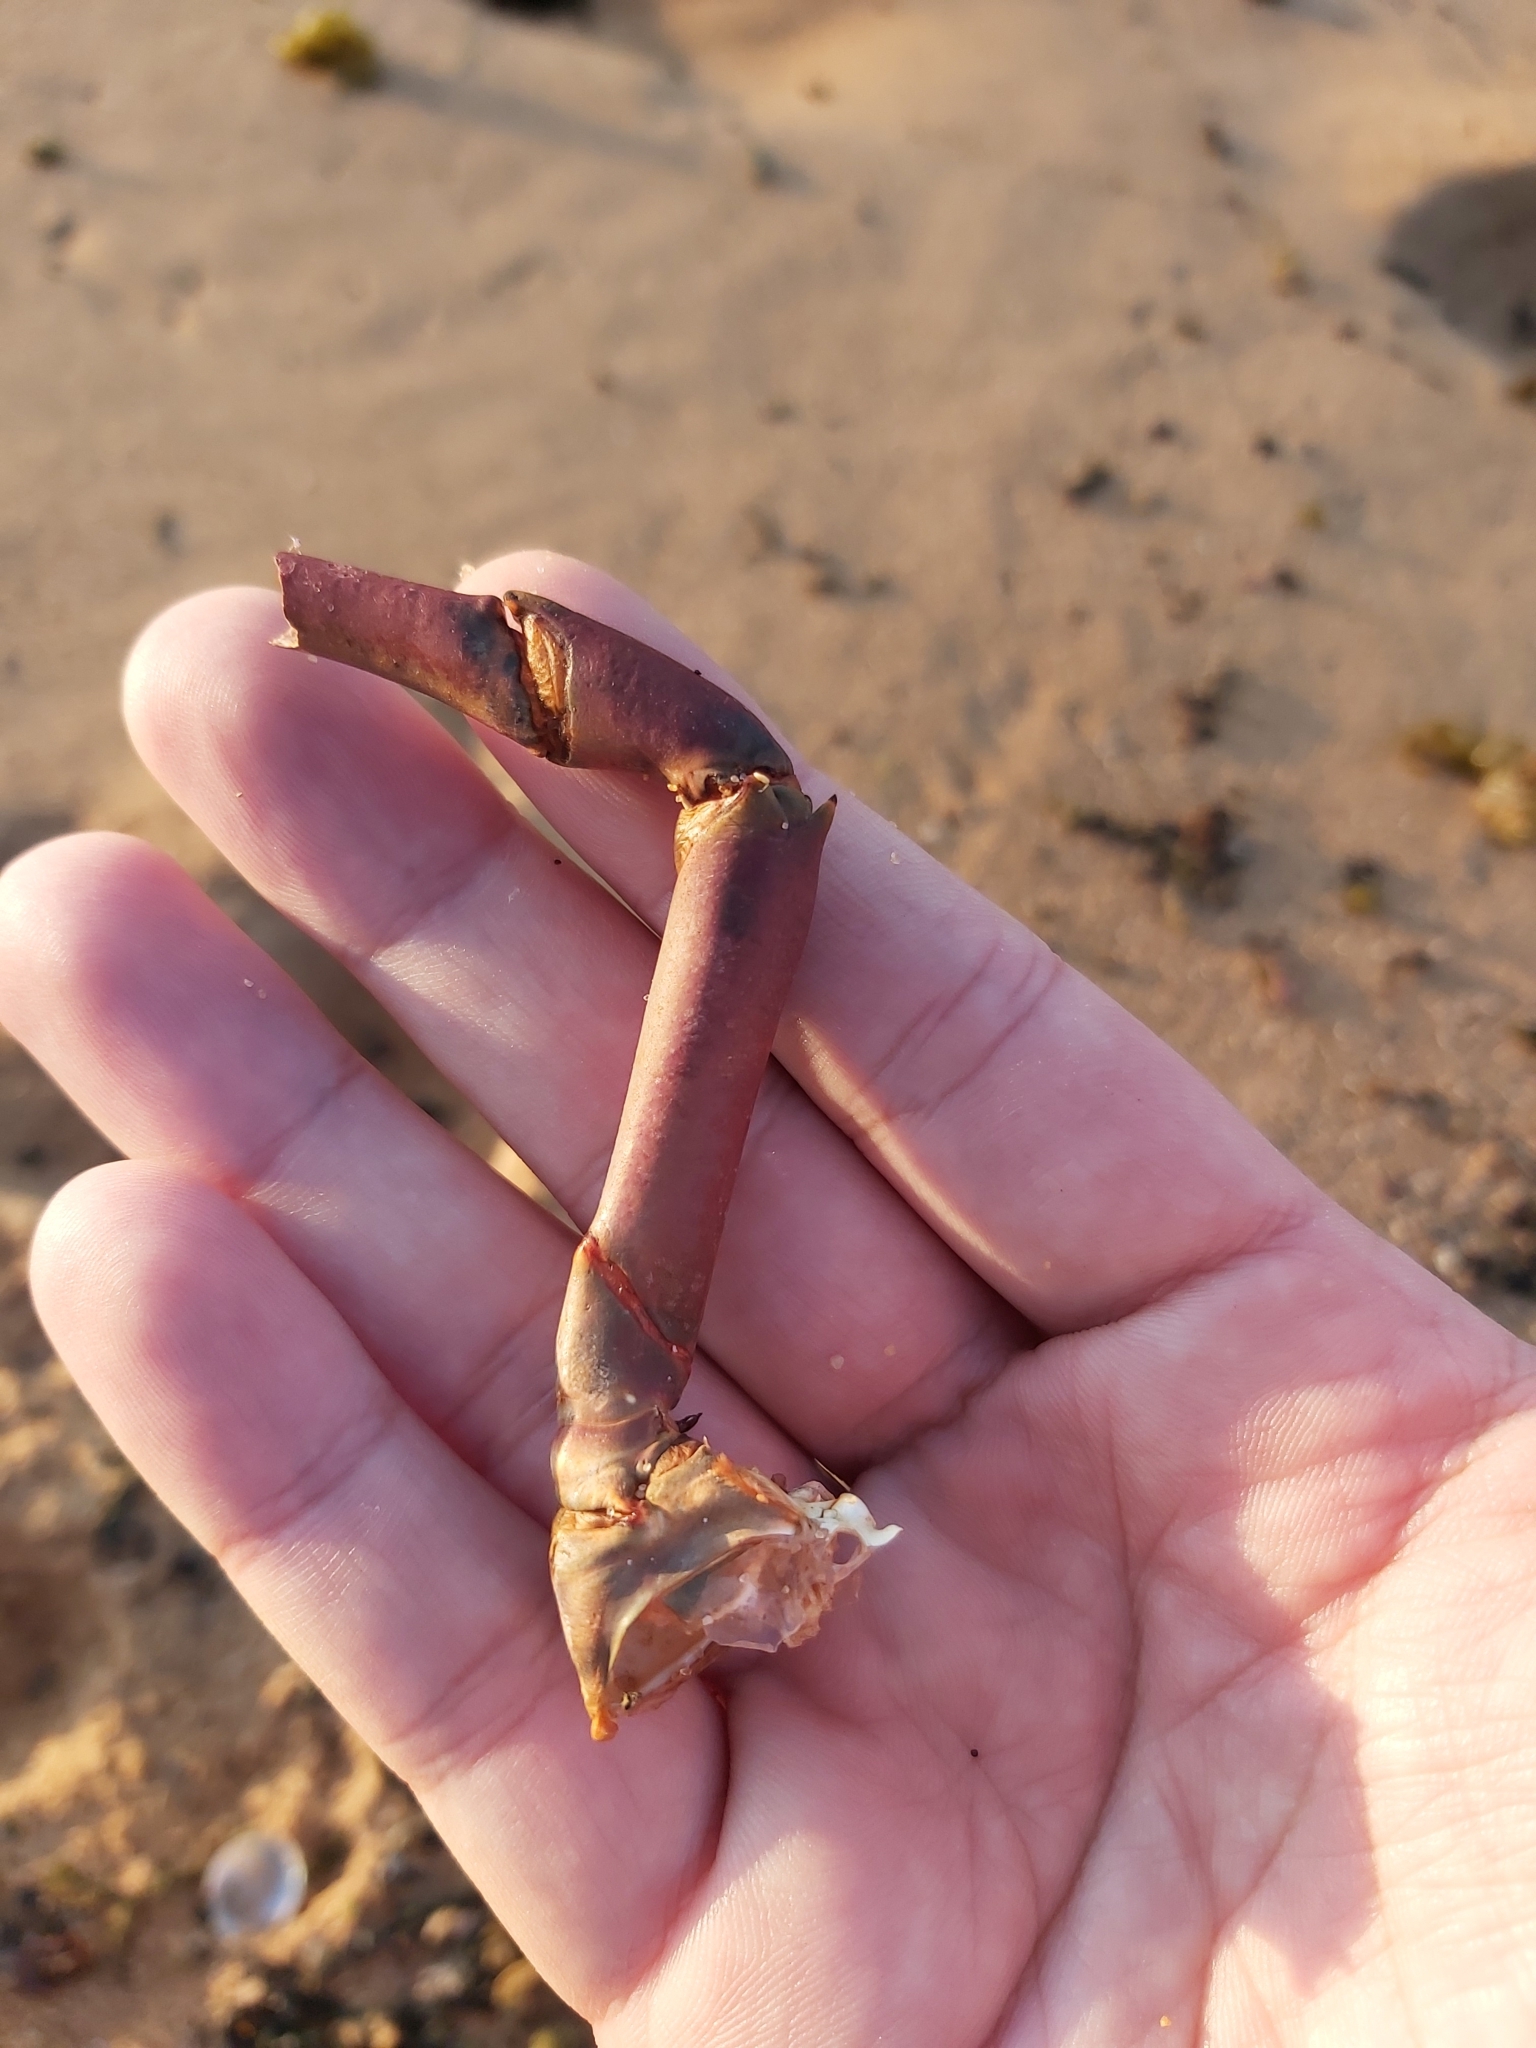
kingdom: Animalia
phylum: Arthropoda
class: Malacostraca
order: Decapoda
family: Palinuridae
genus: Sagmariasus
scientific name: Sagmariasus verreauxi
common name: Green rock lobster
